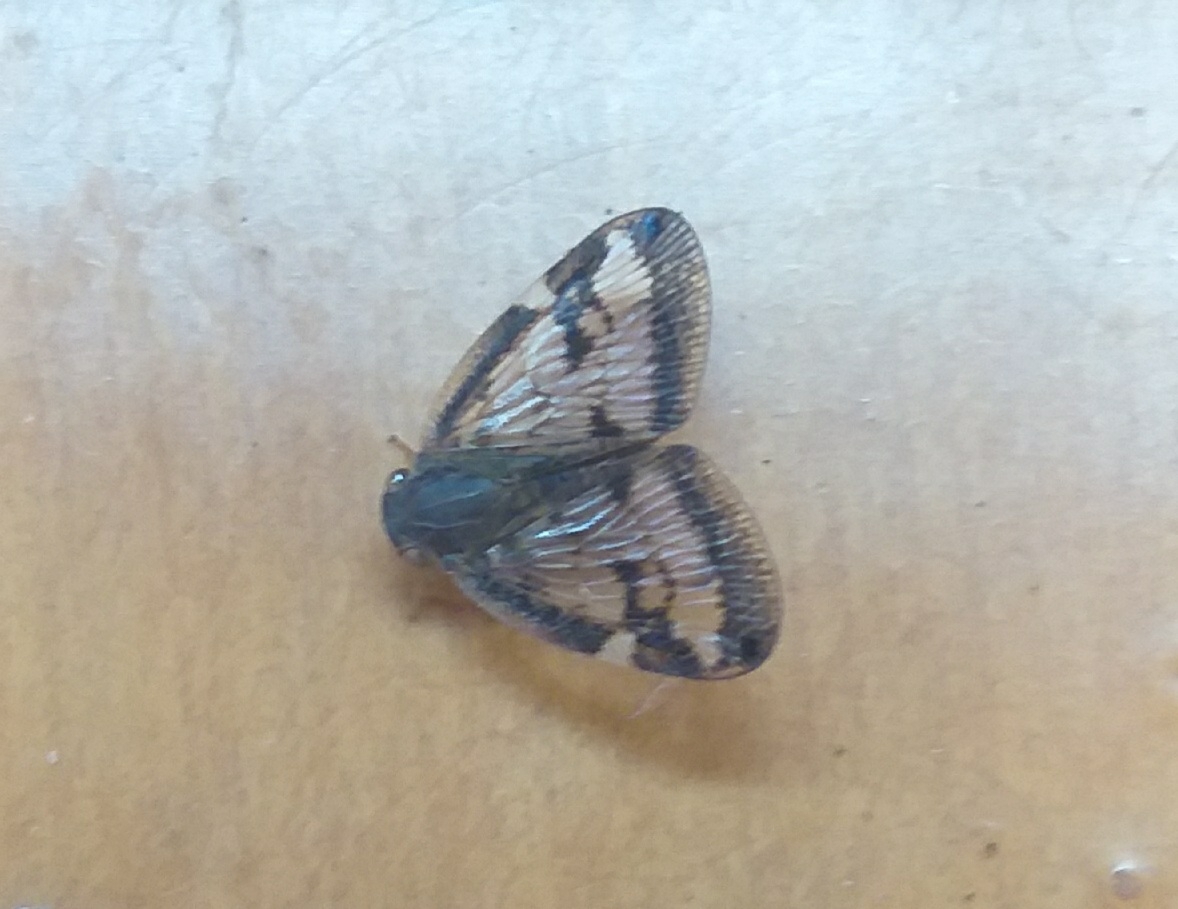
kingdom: Animalia
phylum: Arthropoda
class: Insecta
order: Hemiptera
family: Ricaniidae
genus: Scolypopa
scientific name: Scolypopa australis
